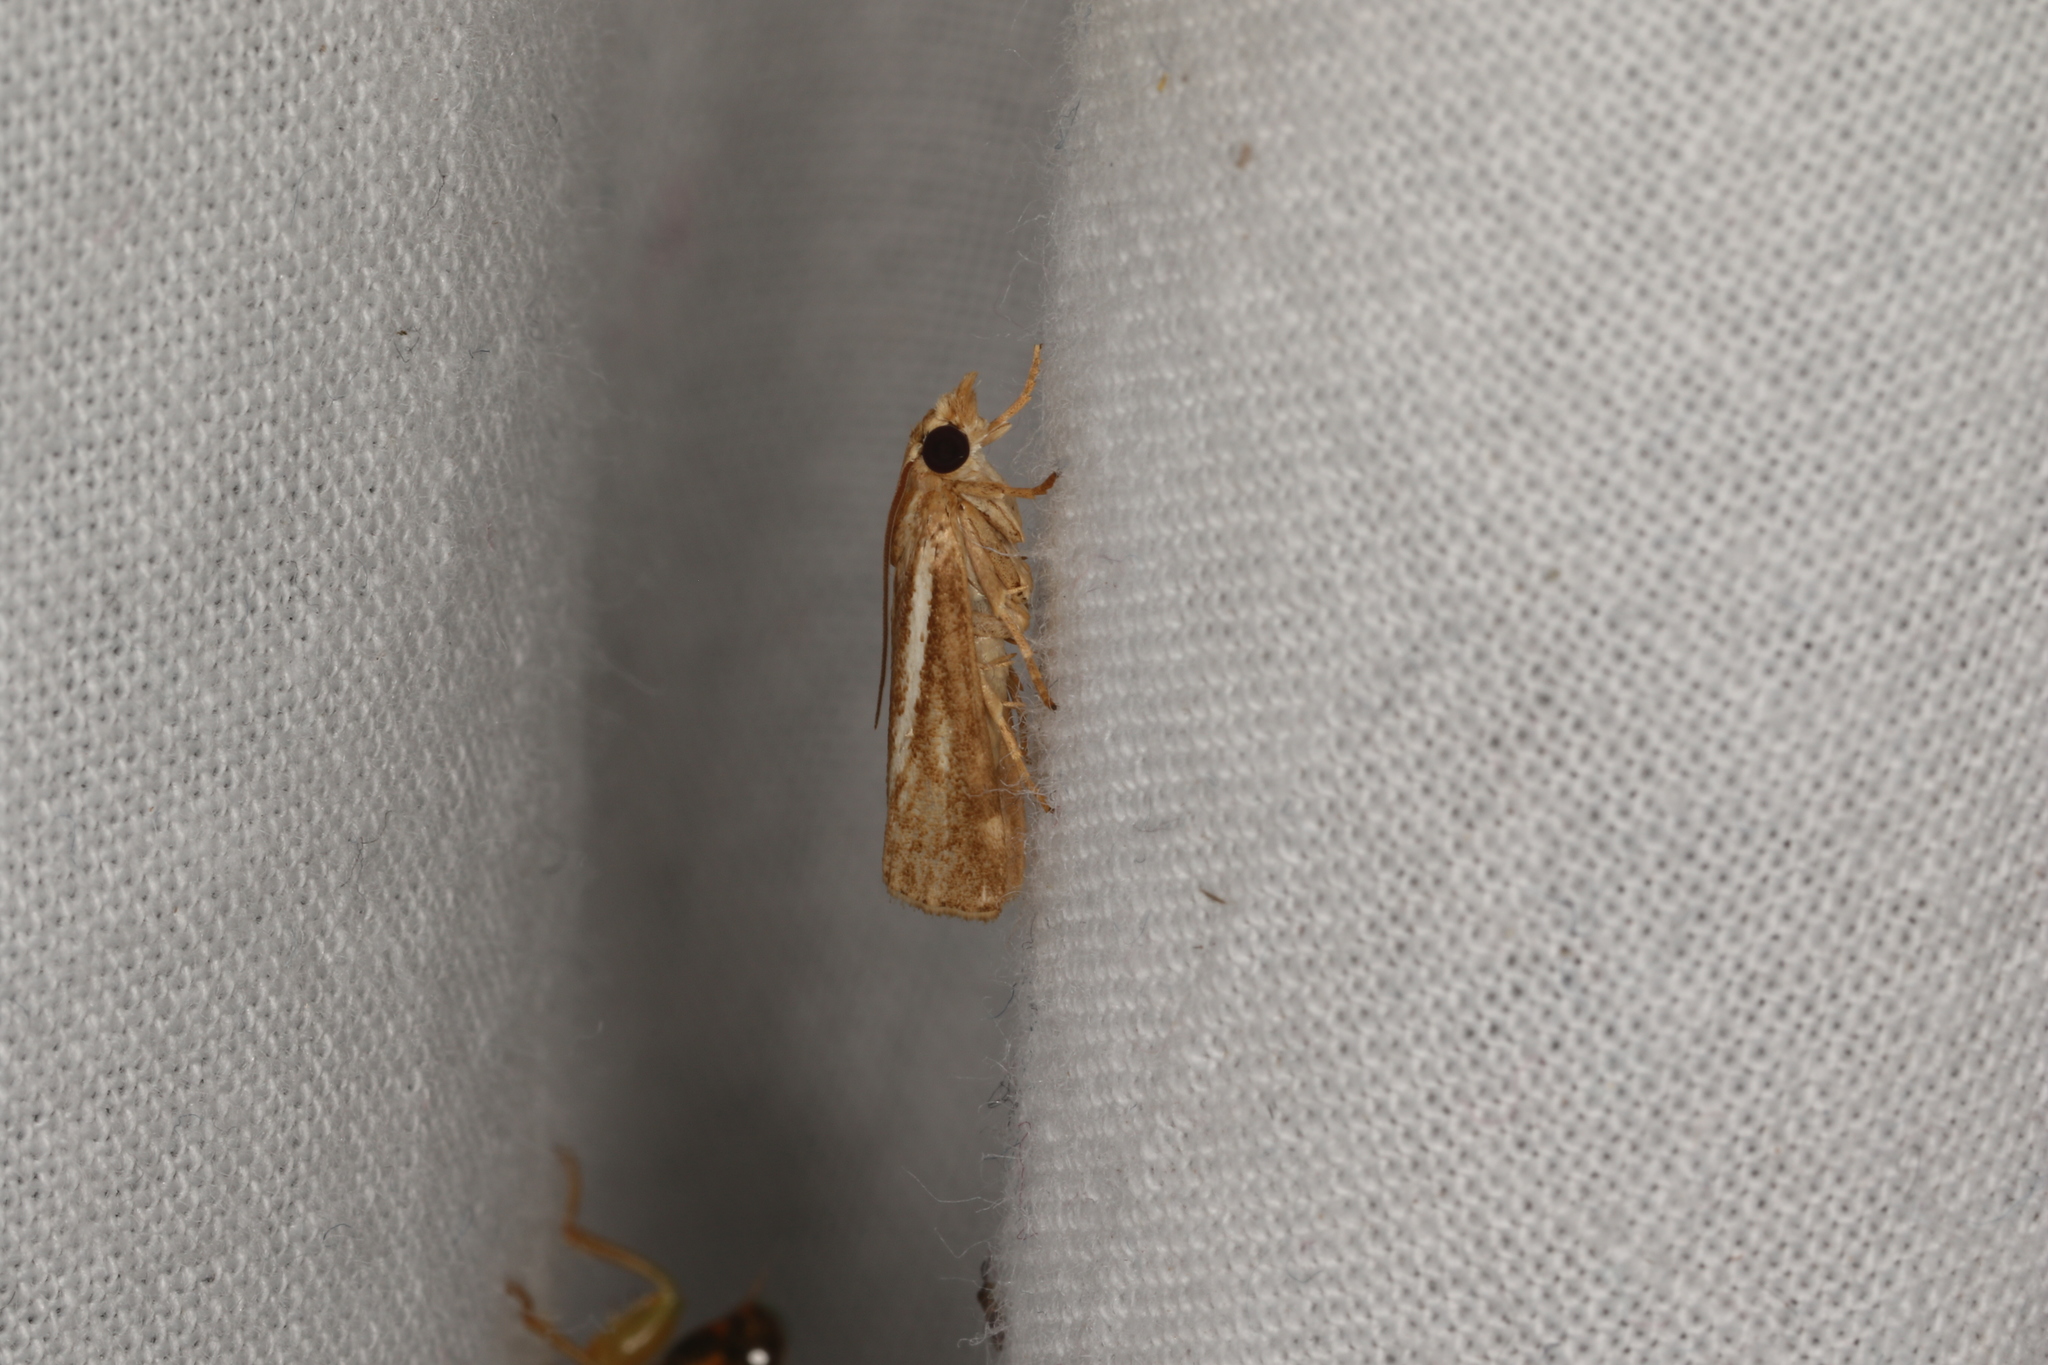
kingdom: Animalia
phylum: Arthropoda
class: Insecta
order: Lepidoptera
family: Crambidae
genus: Conocrambus
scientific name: Conocrambus medioradiellus
